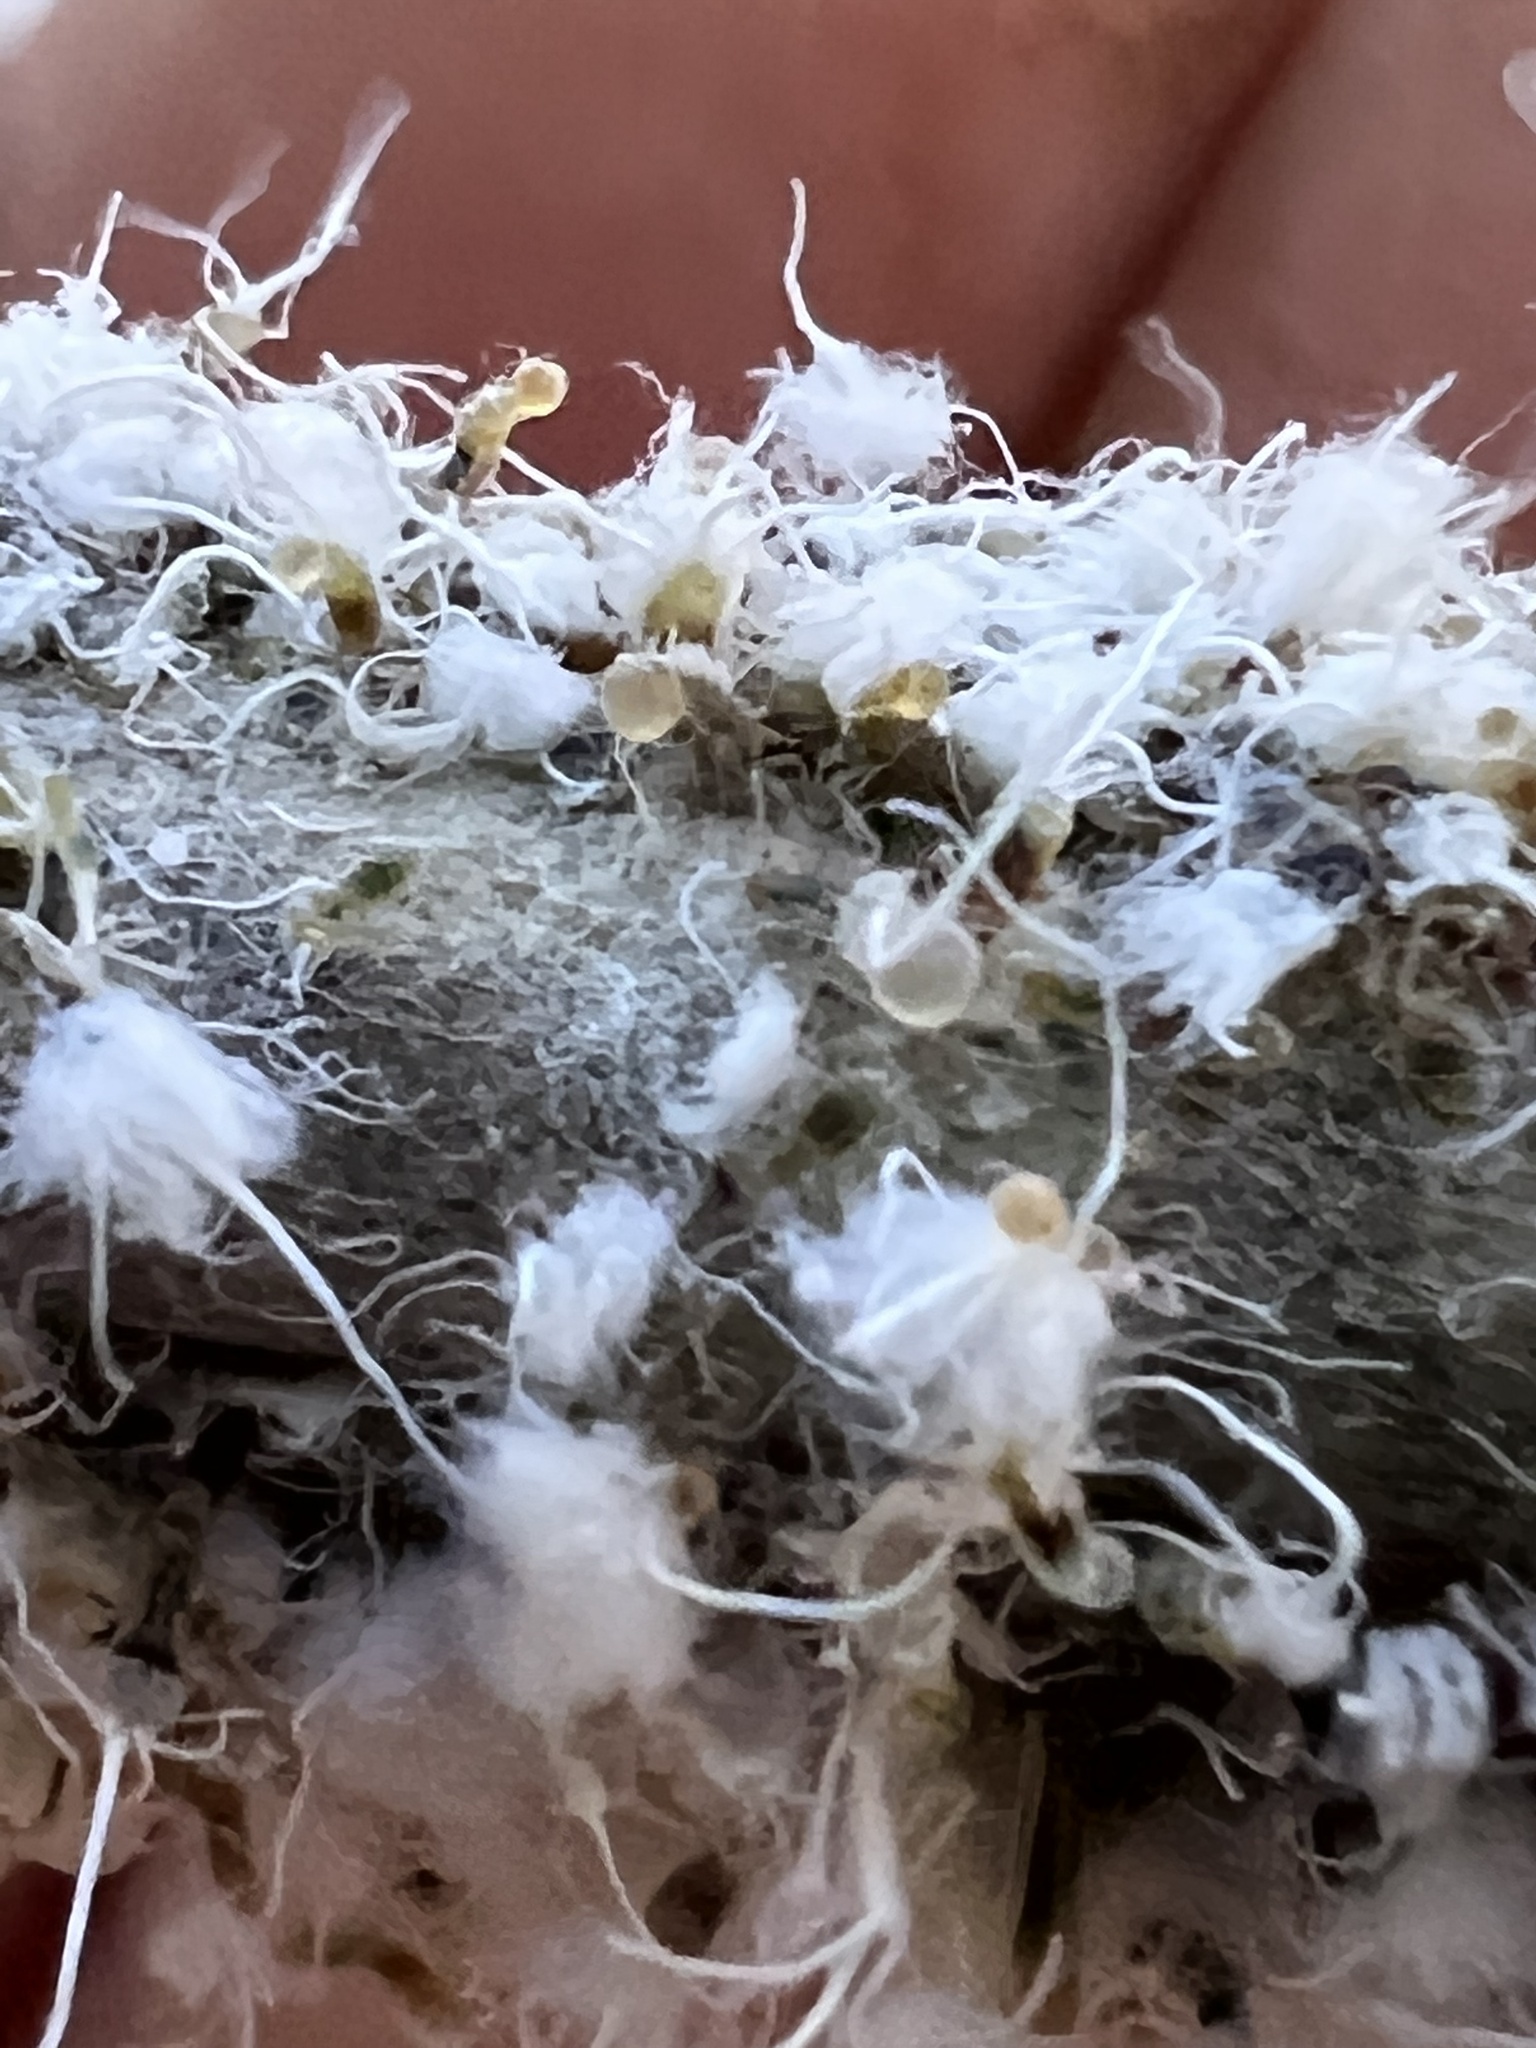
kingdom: Animalia
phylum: Arthropoda
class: Insecta
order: Hemiptera
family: Aphididae
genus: Grylloprociphilus
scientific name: Grylloprociphilus imbricator
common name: Beech blight aphid
